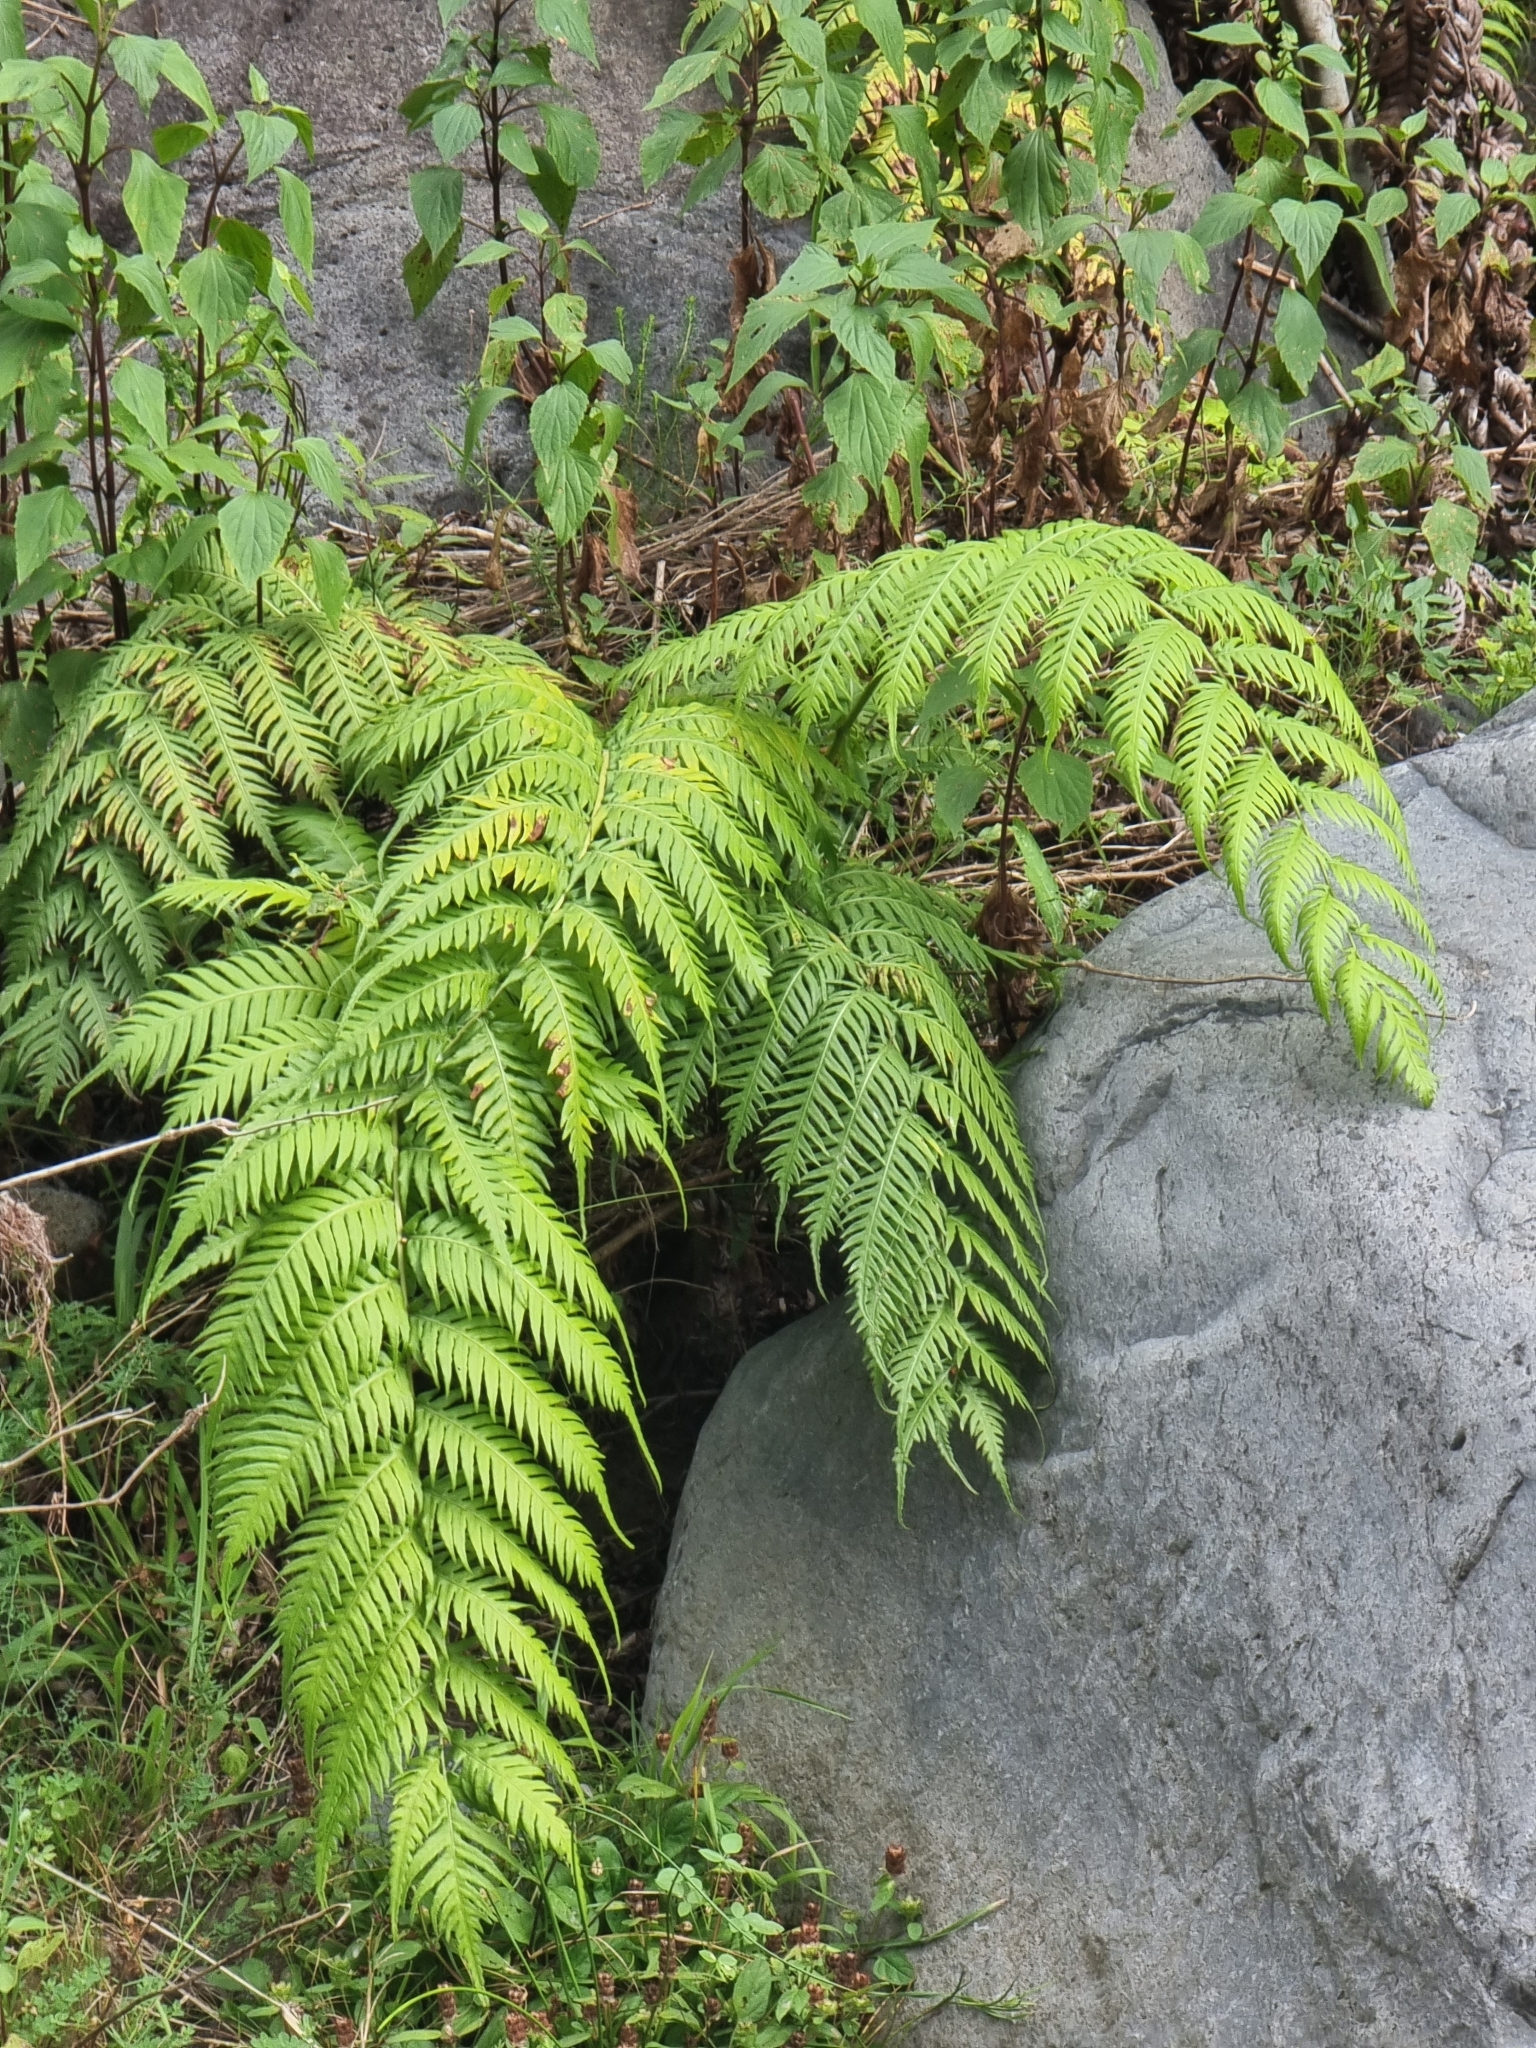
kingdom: Plantae
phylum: Tracheophyta
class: Polypodiopsida
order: Polypodiales
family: Blechnaceae
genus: Woodwardia
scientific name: Woodwardia radicans
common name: Rooting chainfern
